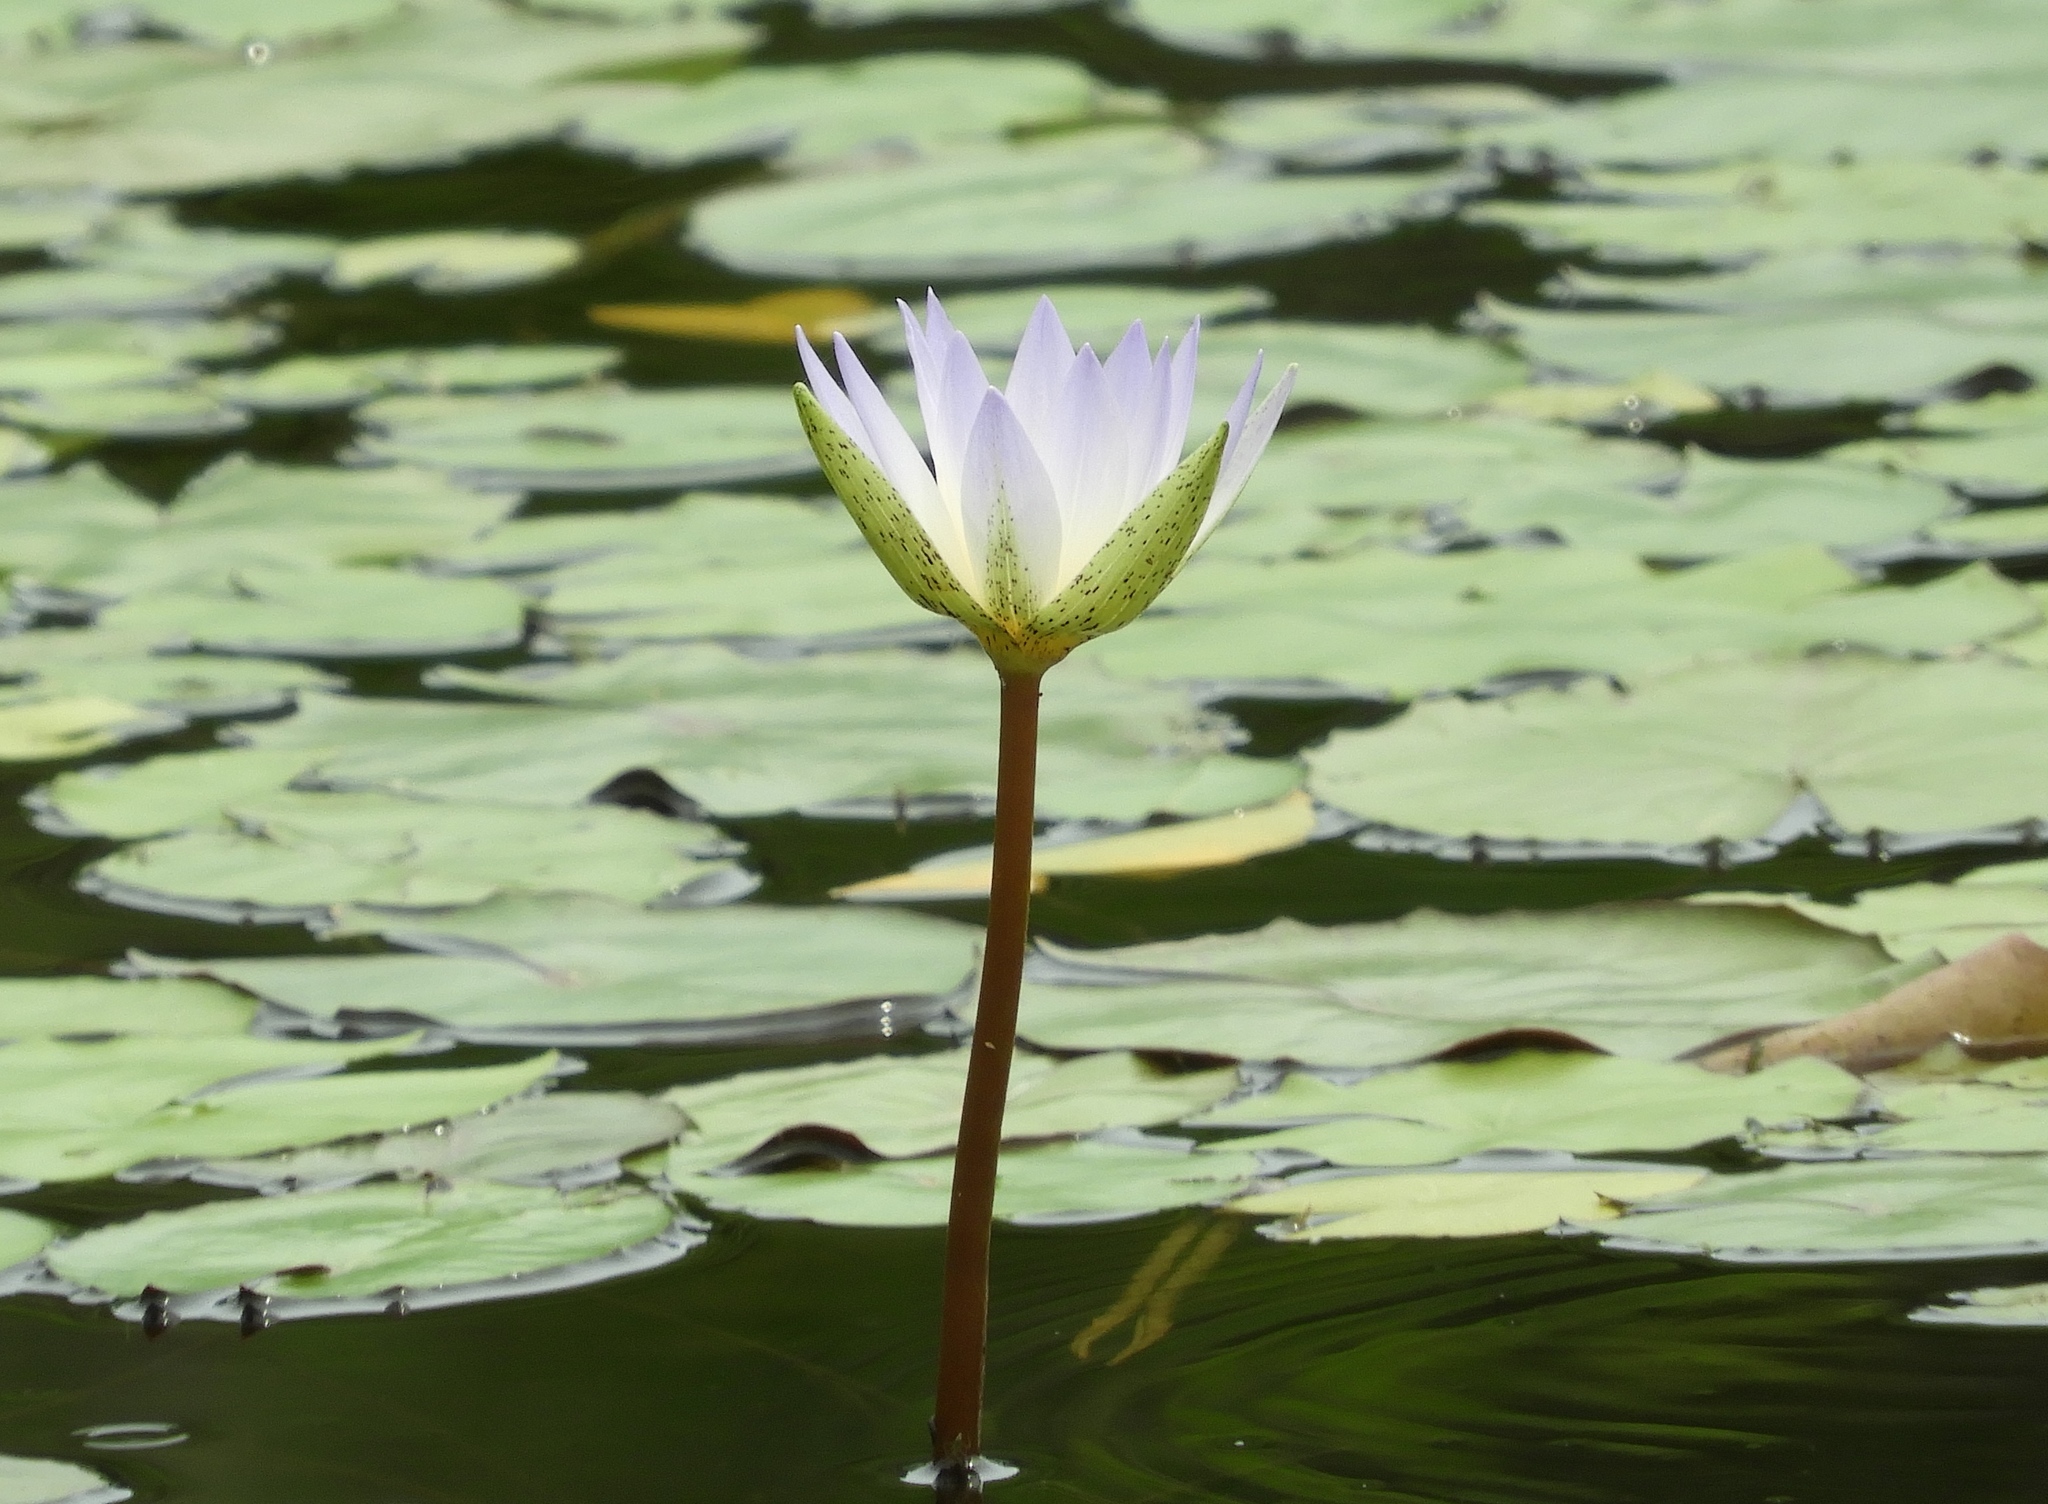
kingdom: Plantae
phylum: Tracheophyta
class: Magnoliopsida
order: Nymphaeales
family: Nymphaeaceae
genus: Nymphaea
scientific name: Nymphaea elegans
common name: Blue water-lily
